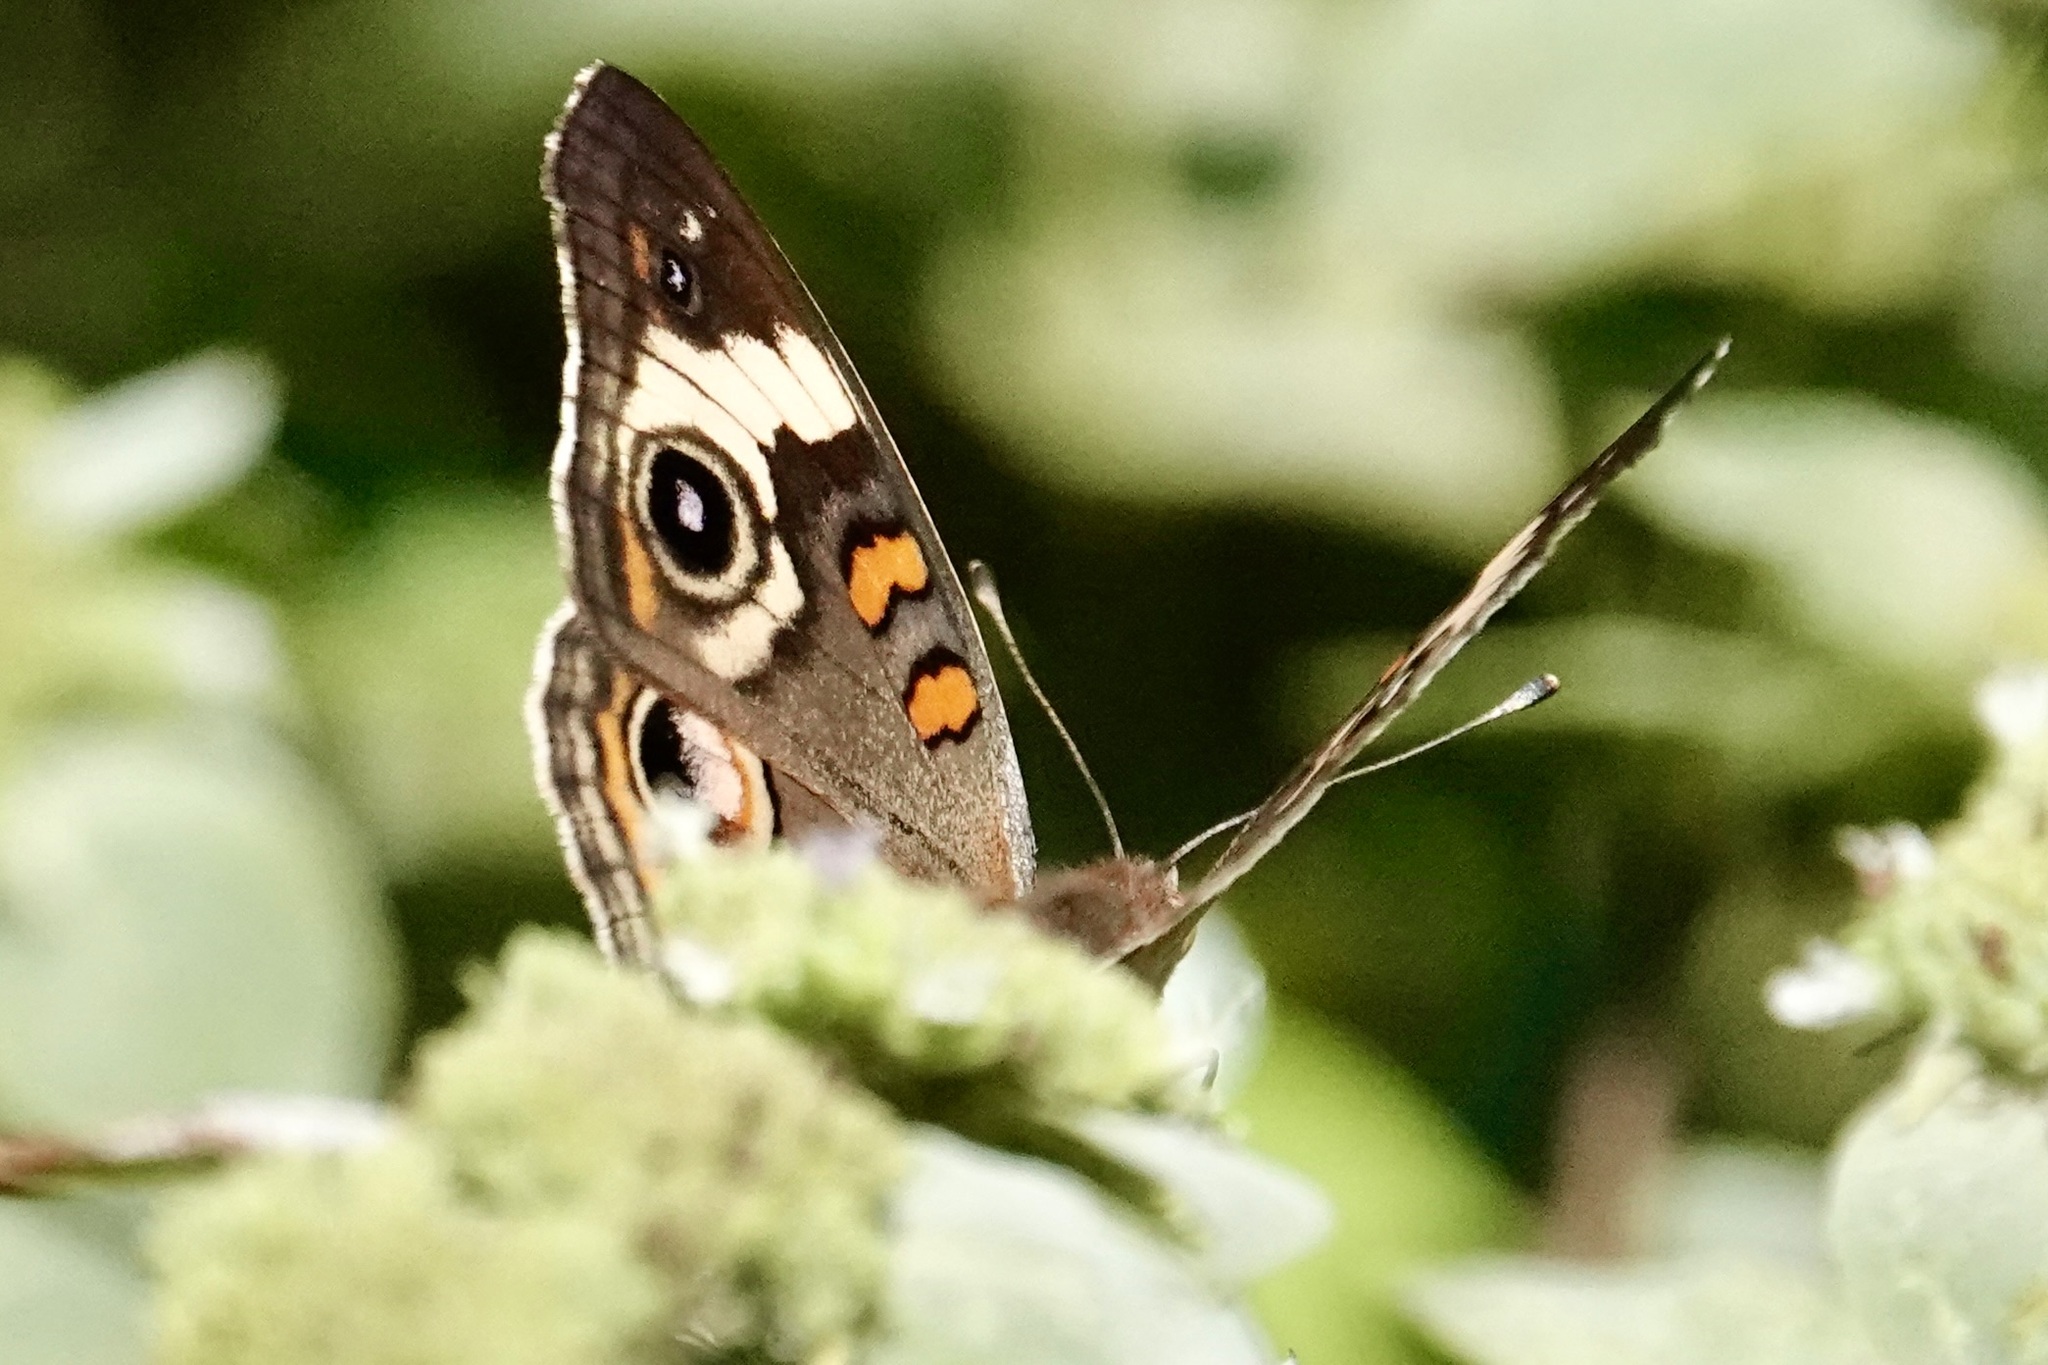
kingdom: Animalia
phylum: Arthropoda
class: Insecta
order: Lepidoptera
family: Nymphalidae
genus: Junonia
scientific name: Junonia coenia
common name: Common buckeye
